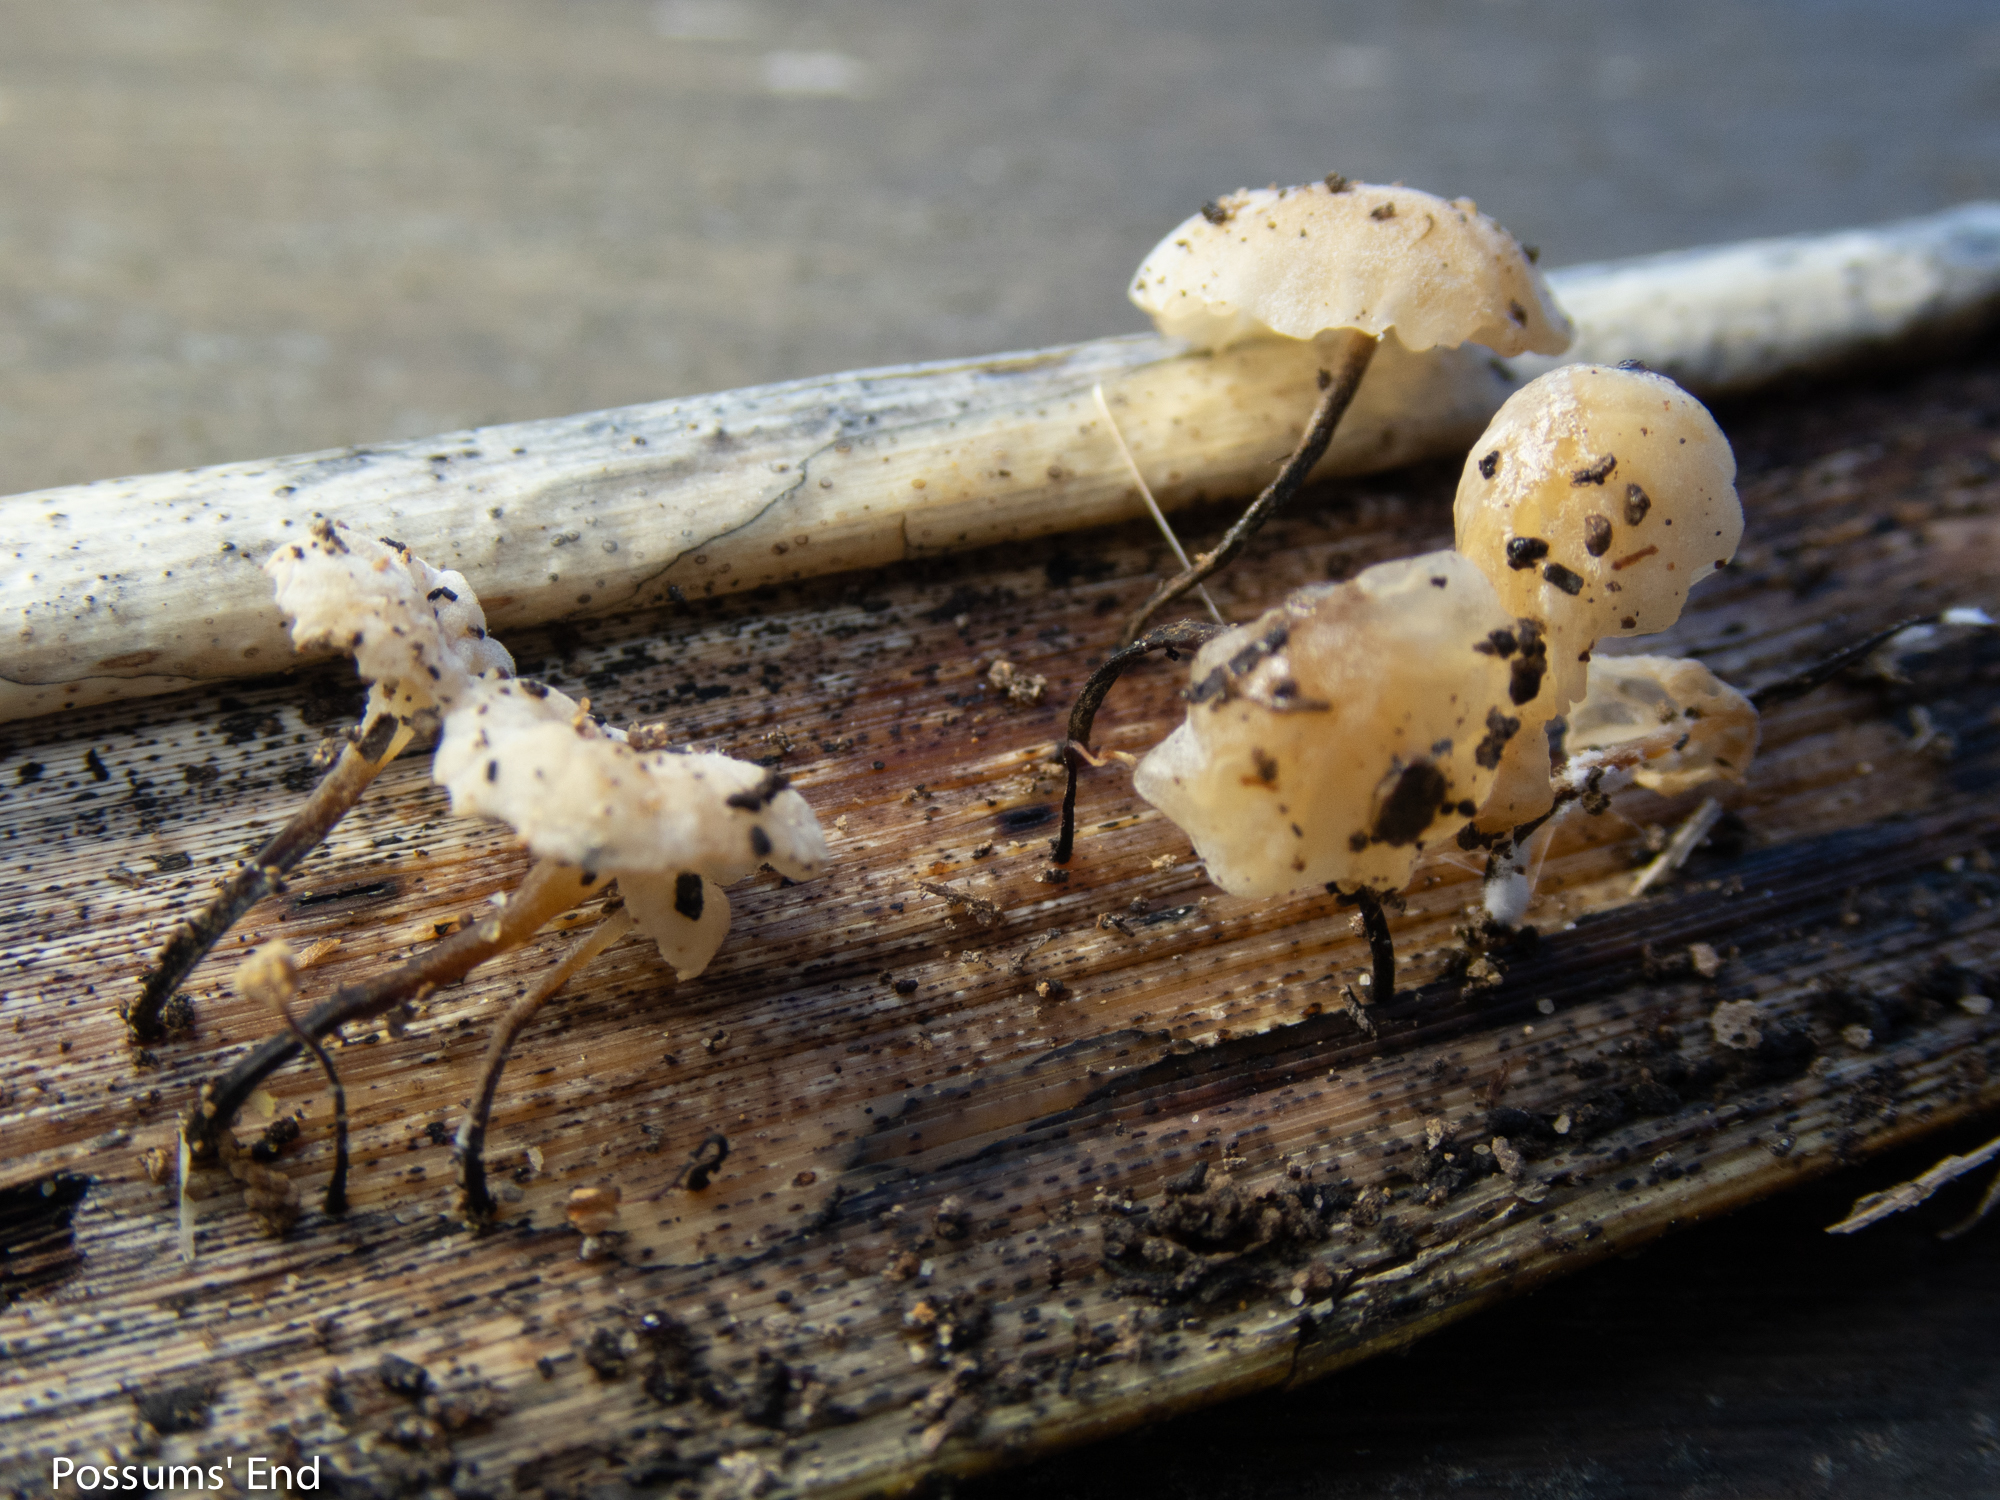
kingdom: Fungi
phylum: Basidiomycota
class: Agaricomycetes
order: Agaricales
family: Marasmiaceae
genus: Campanella
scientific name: Campanella
